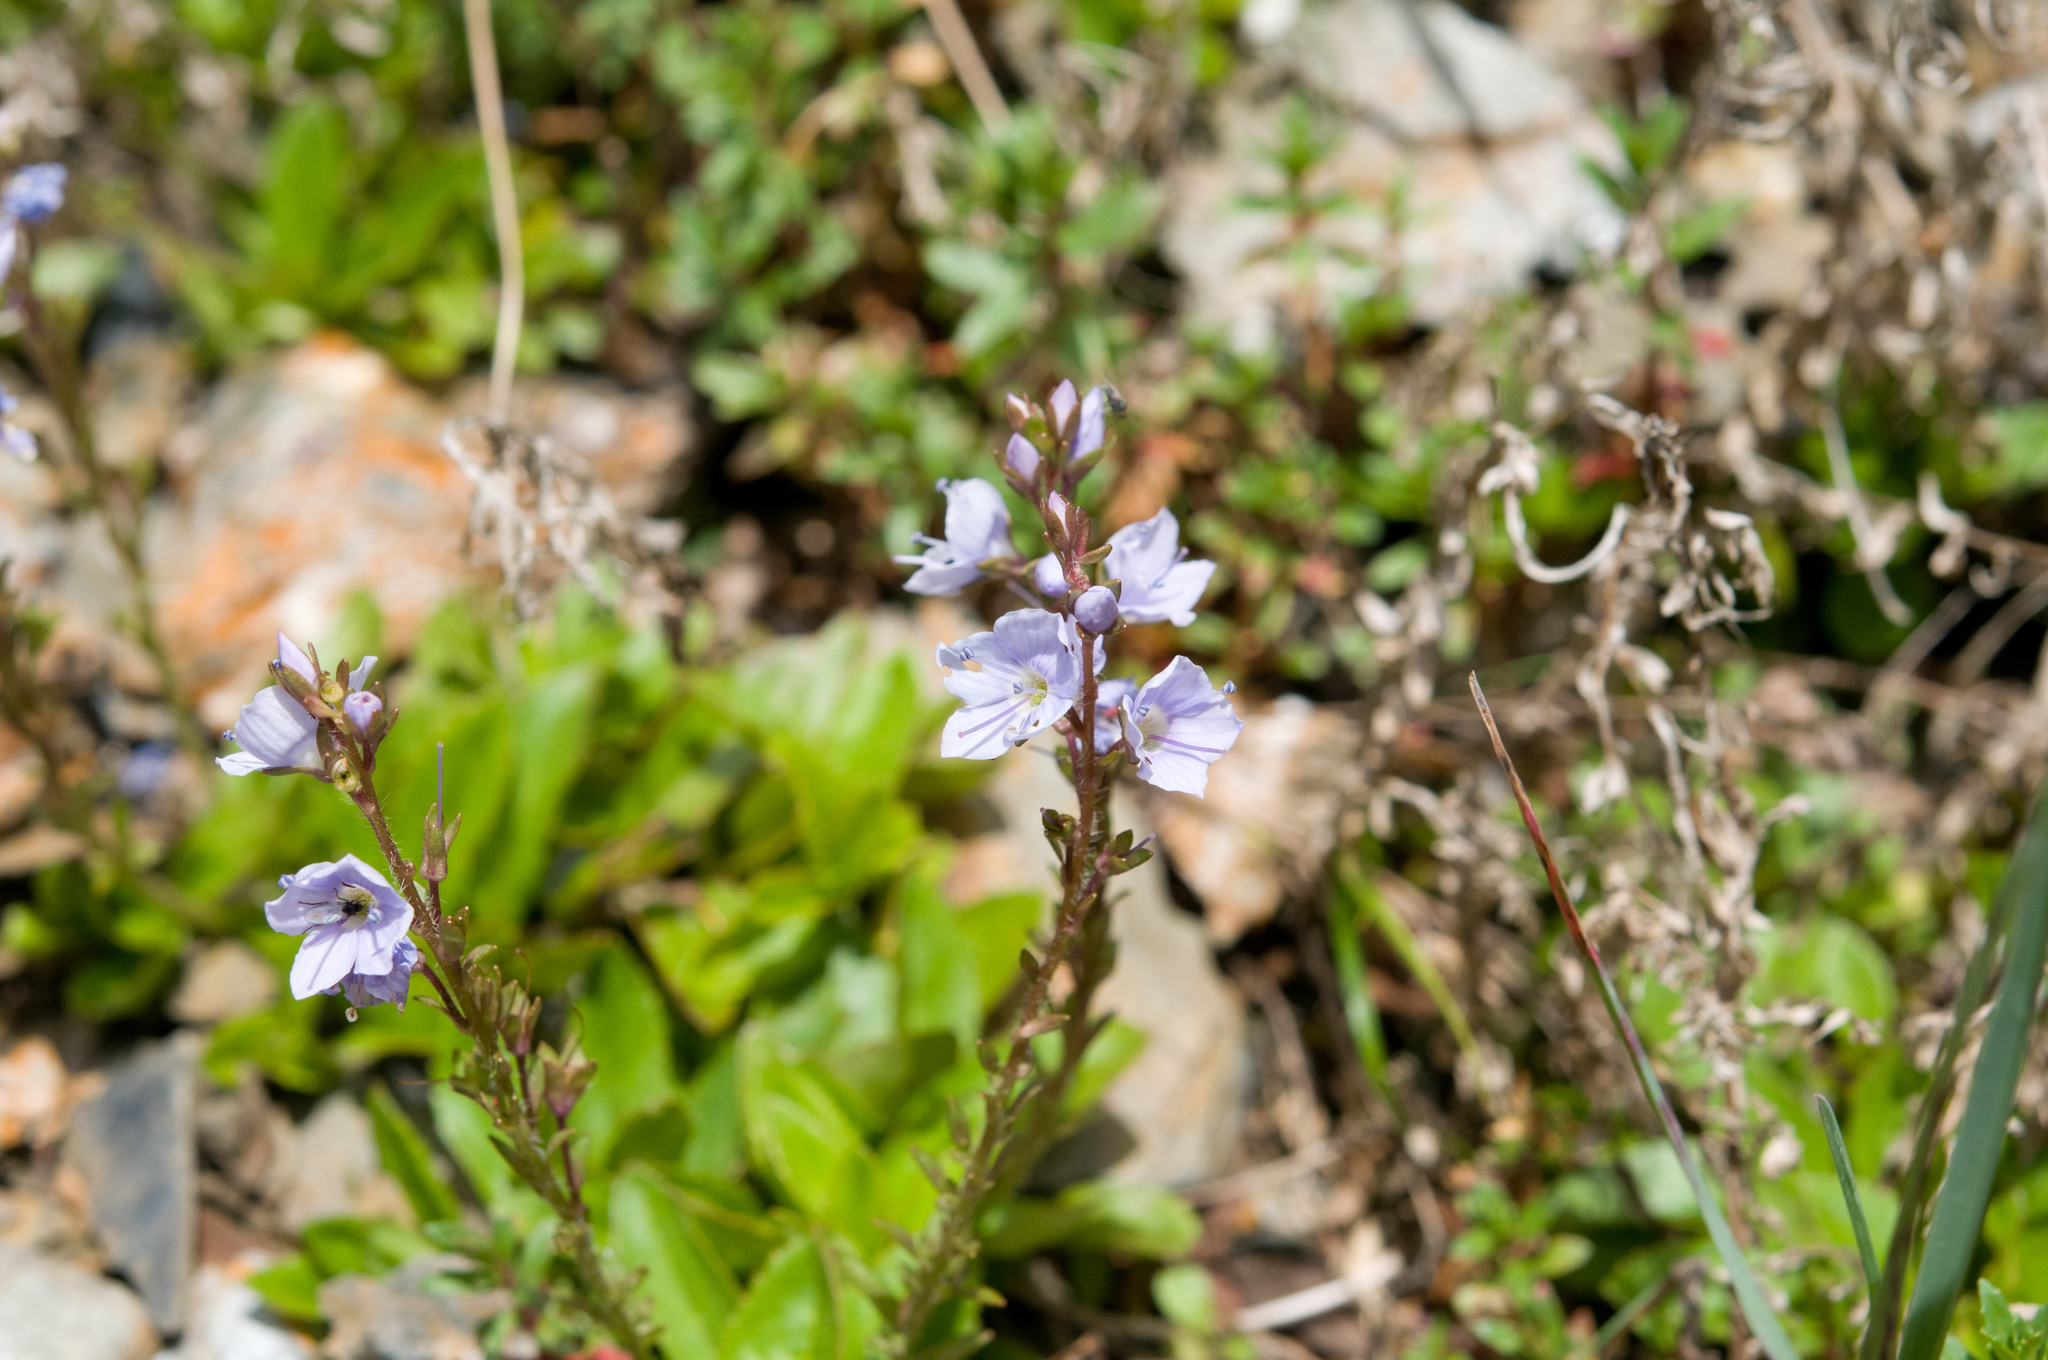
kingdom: Plantae
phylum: Tracheophyta
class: Magnoliopsida
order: Lamiales
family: Plantaginaceae
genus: Veronica
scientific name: Veronica morrisonicola
